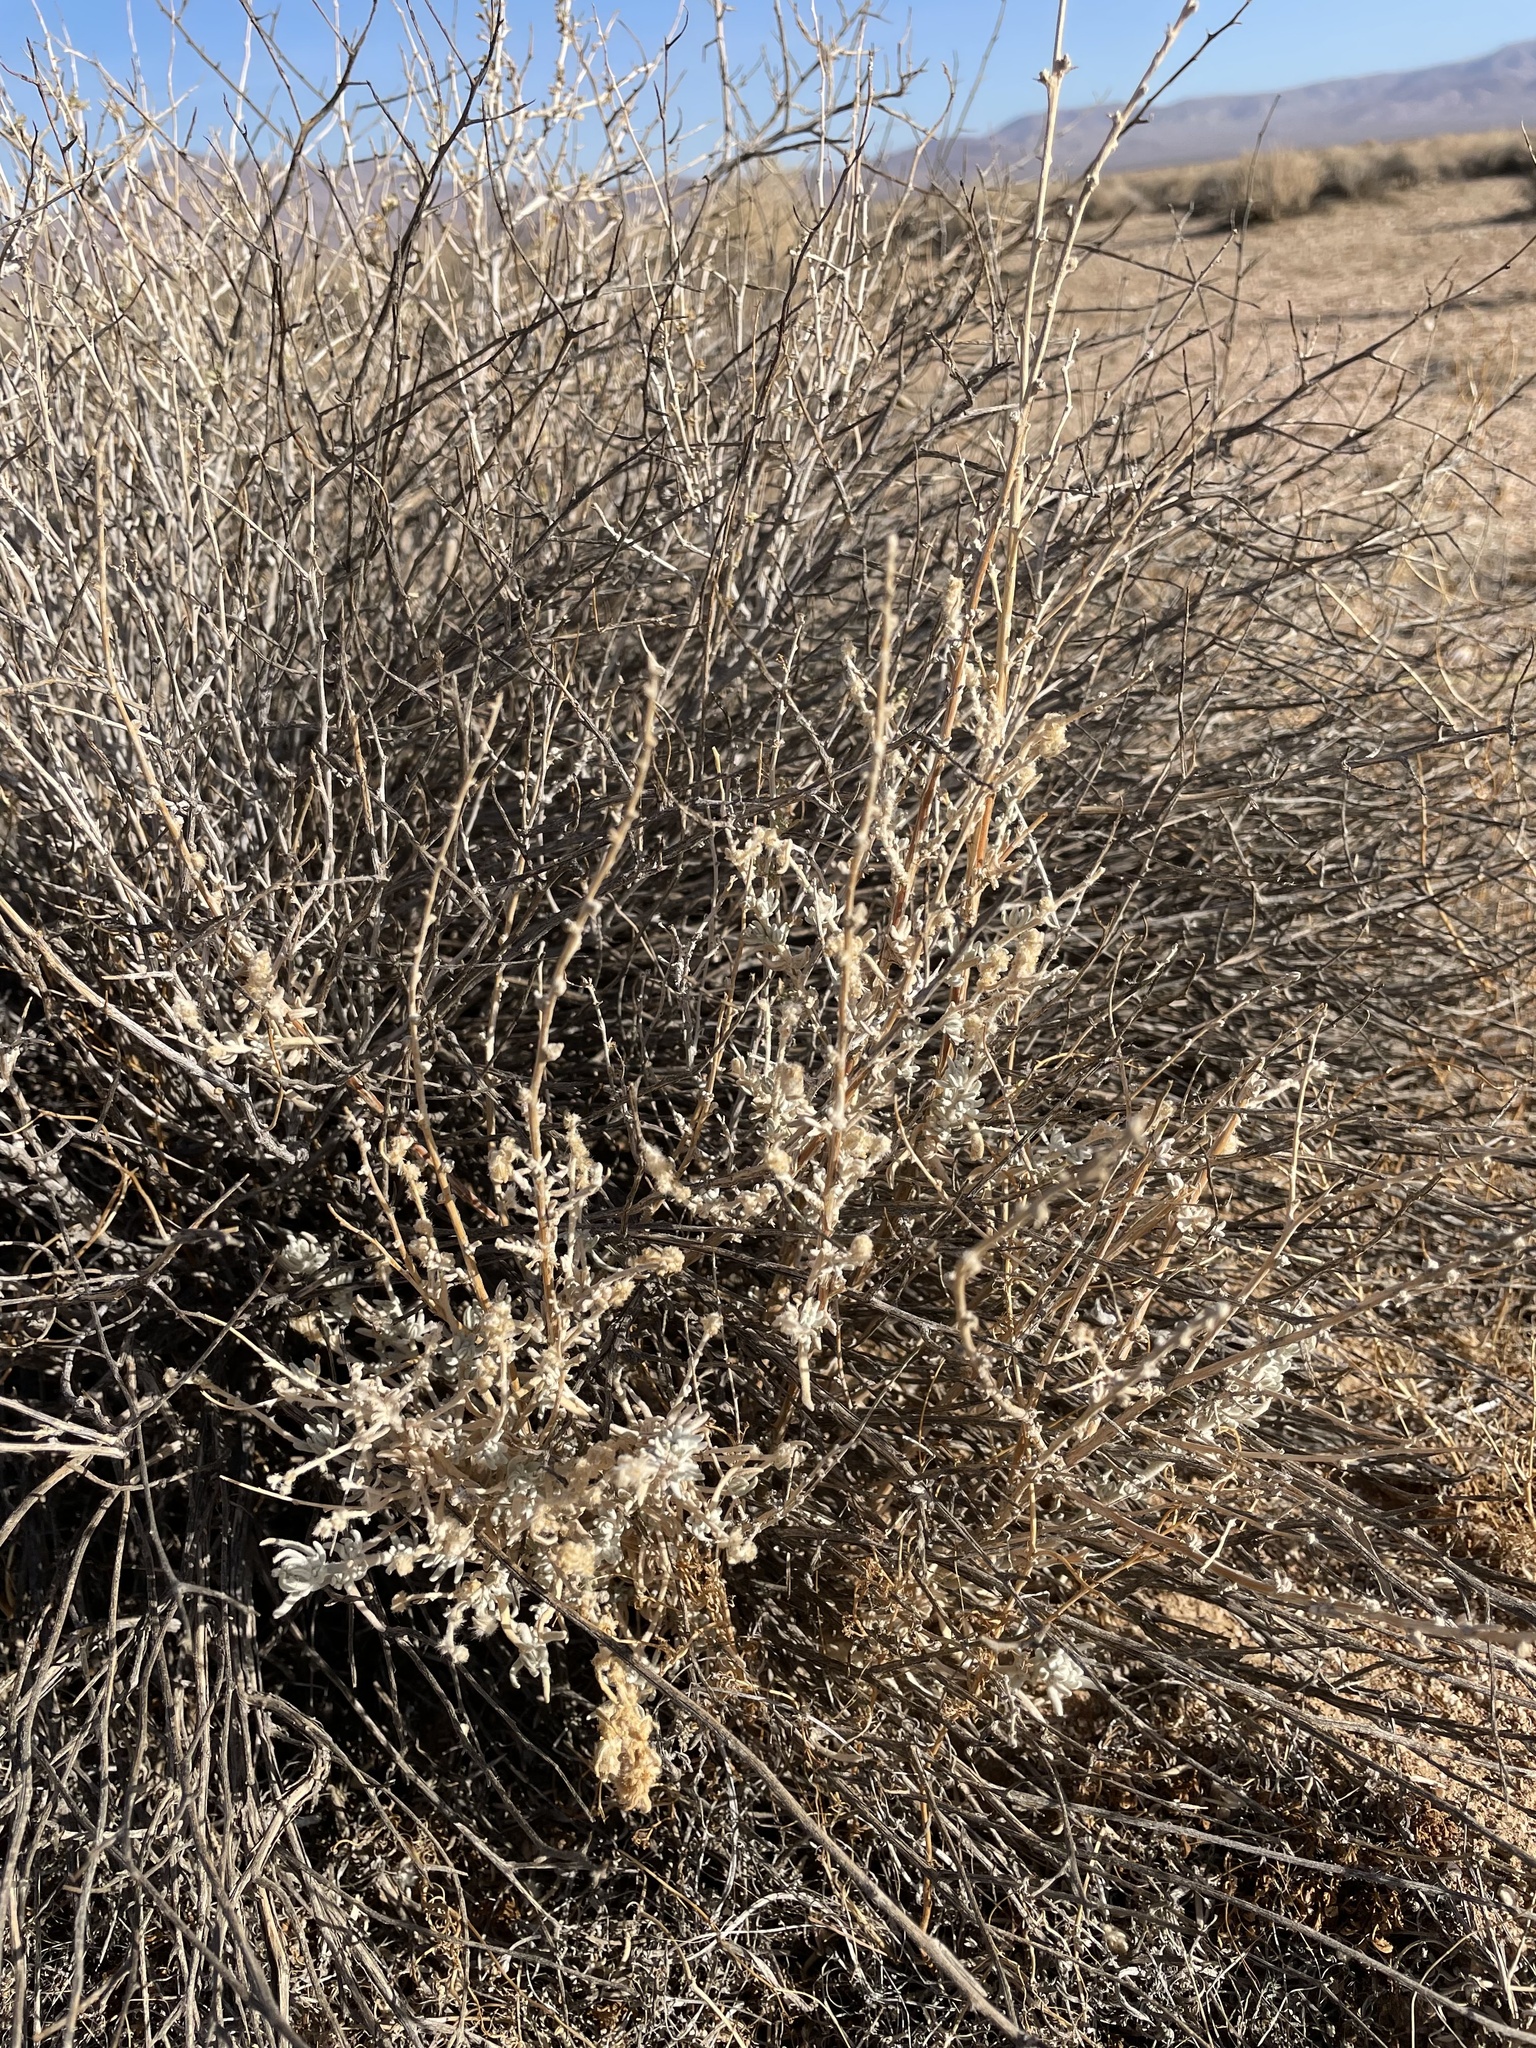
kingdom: Plantae
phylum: Tracheophyta
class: Magnoliopsida
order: Caryophyllales
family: Amaranthaceae
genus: Krascheninnikovia
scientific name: Krascheninnikovia lanata
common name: Winterfat
